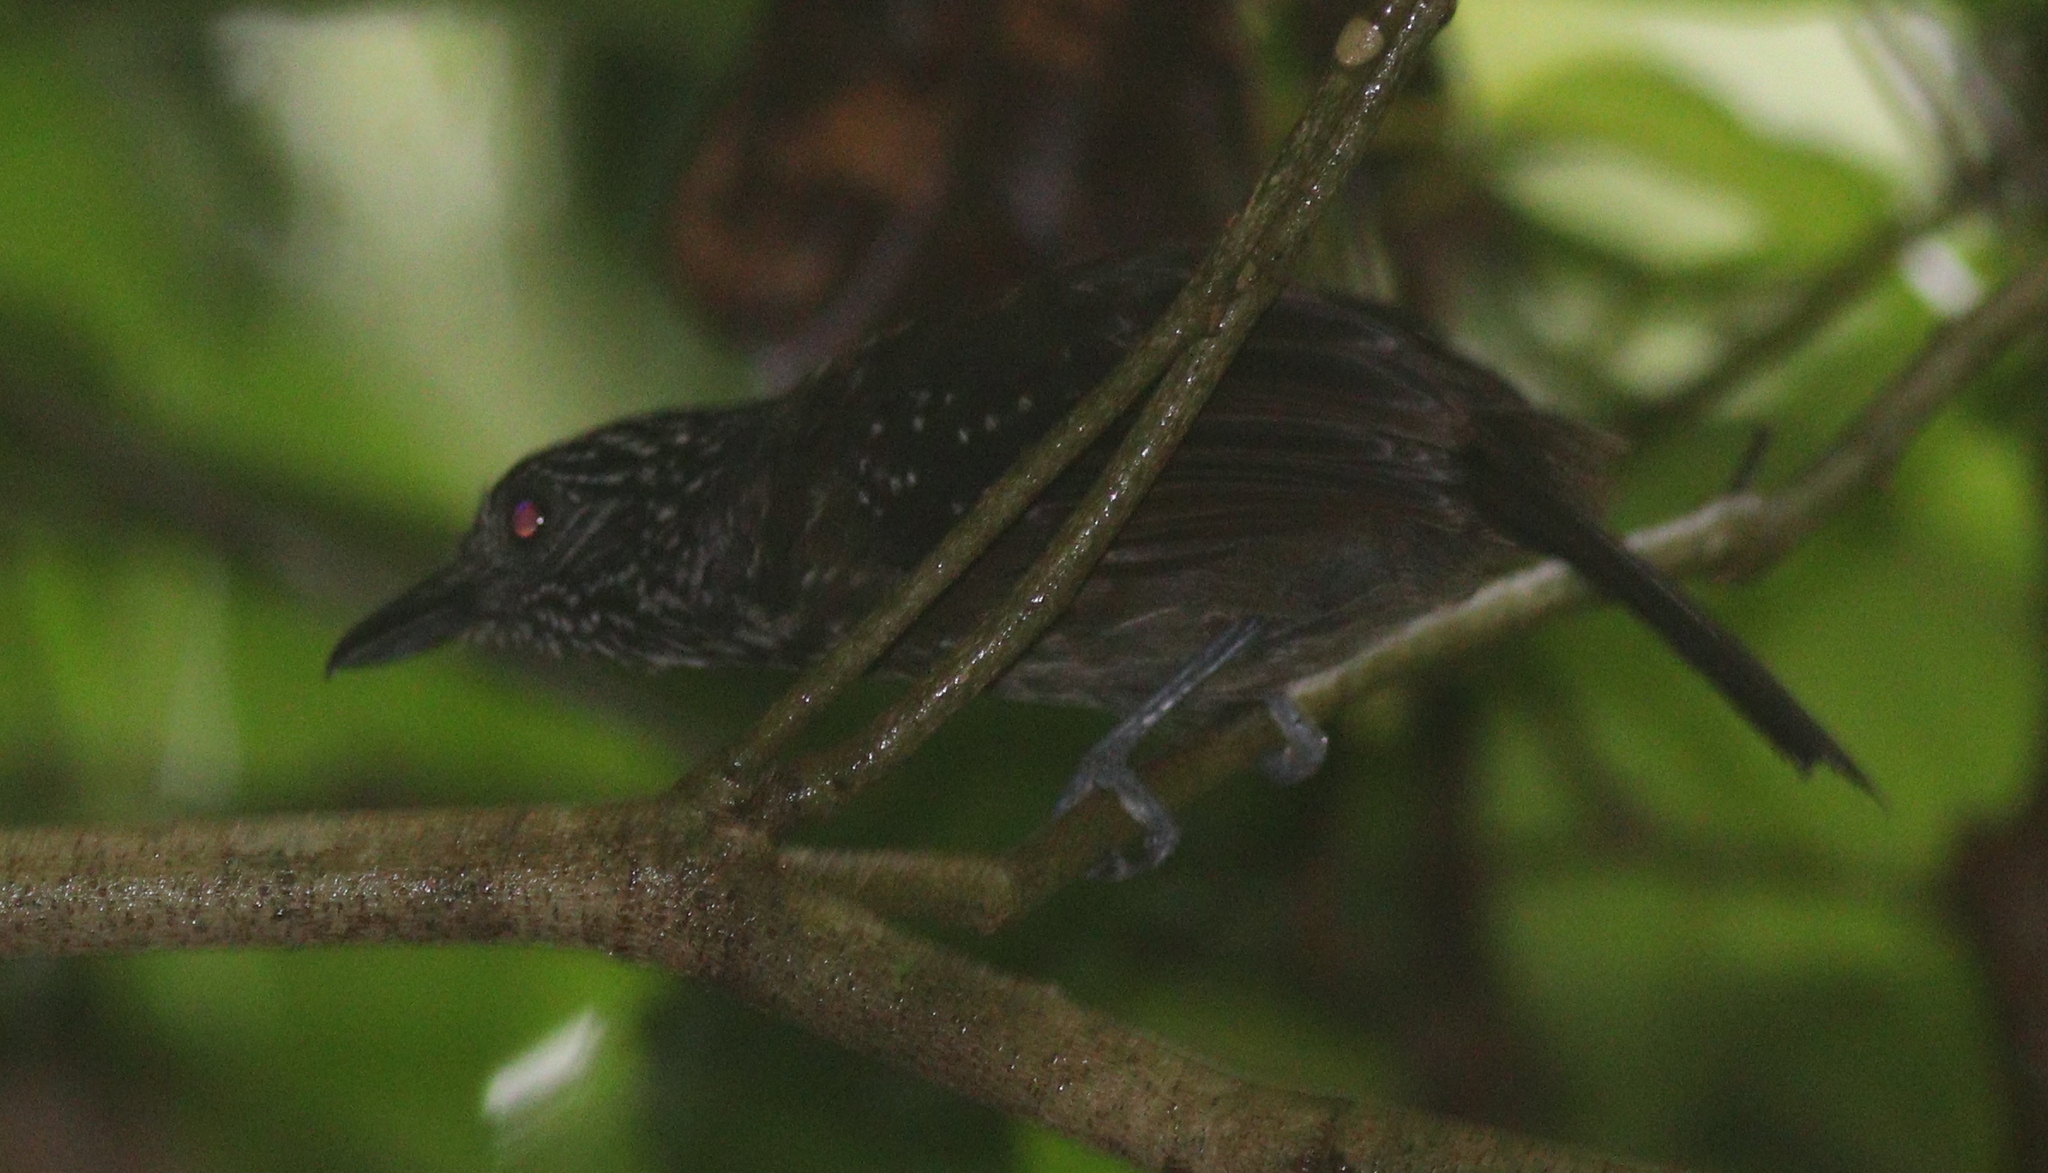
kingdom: Animalia
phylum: Chordata
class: Aves
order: Passeriformes
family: Thamnophilidae
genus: Thamnophilus
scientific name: Thamnophilus bridgesi
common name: Black-hooded antshrike
